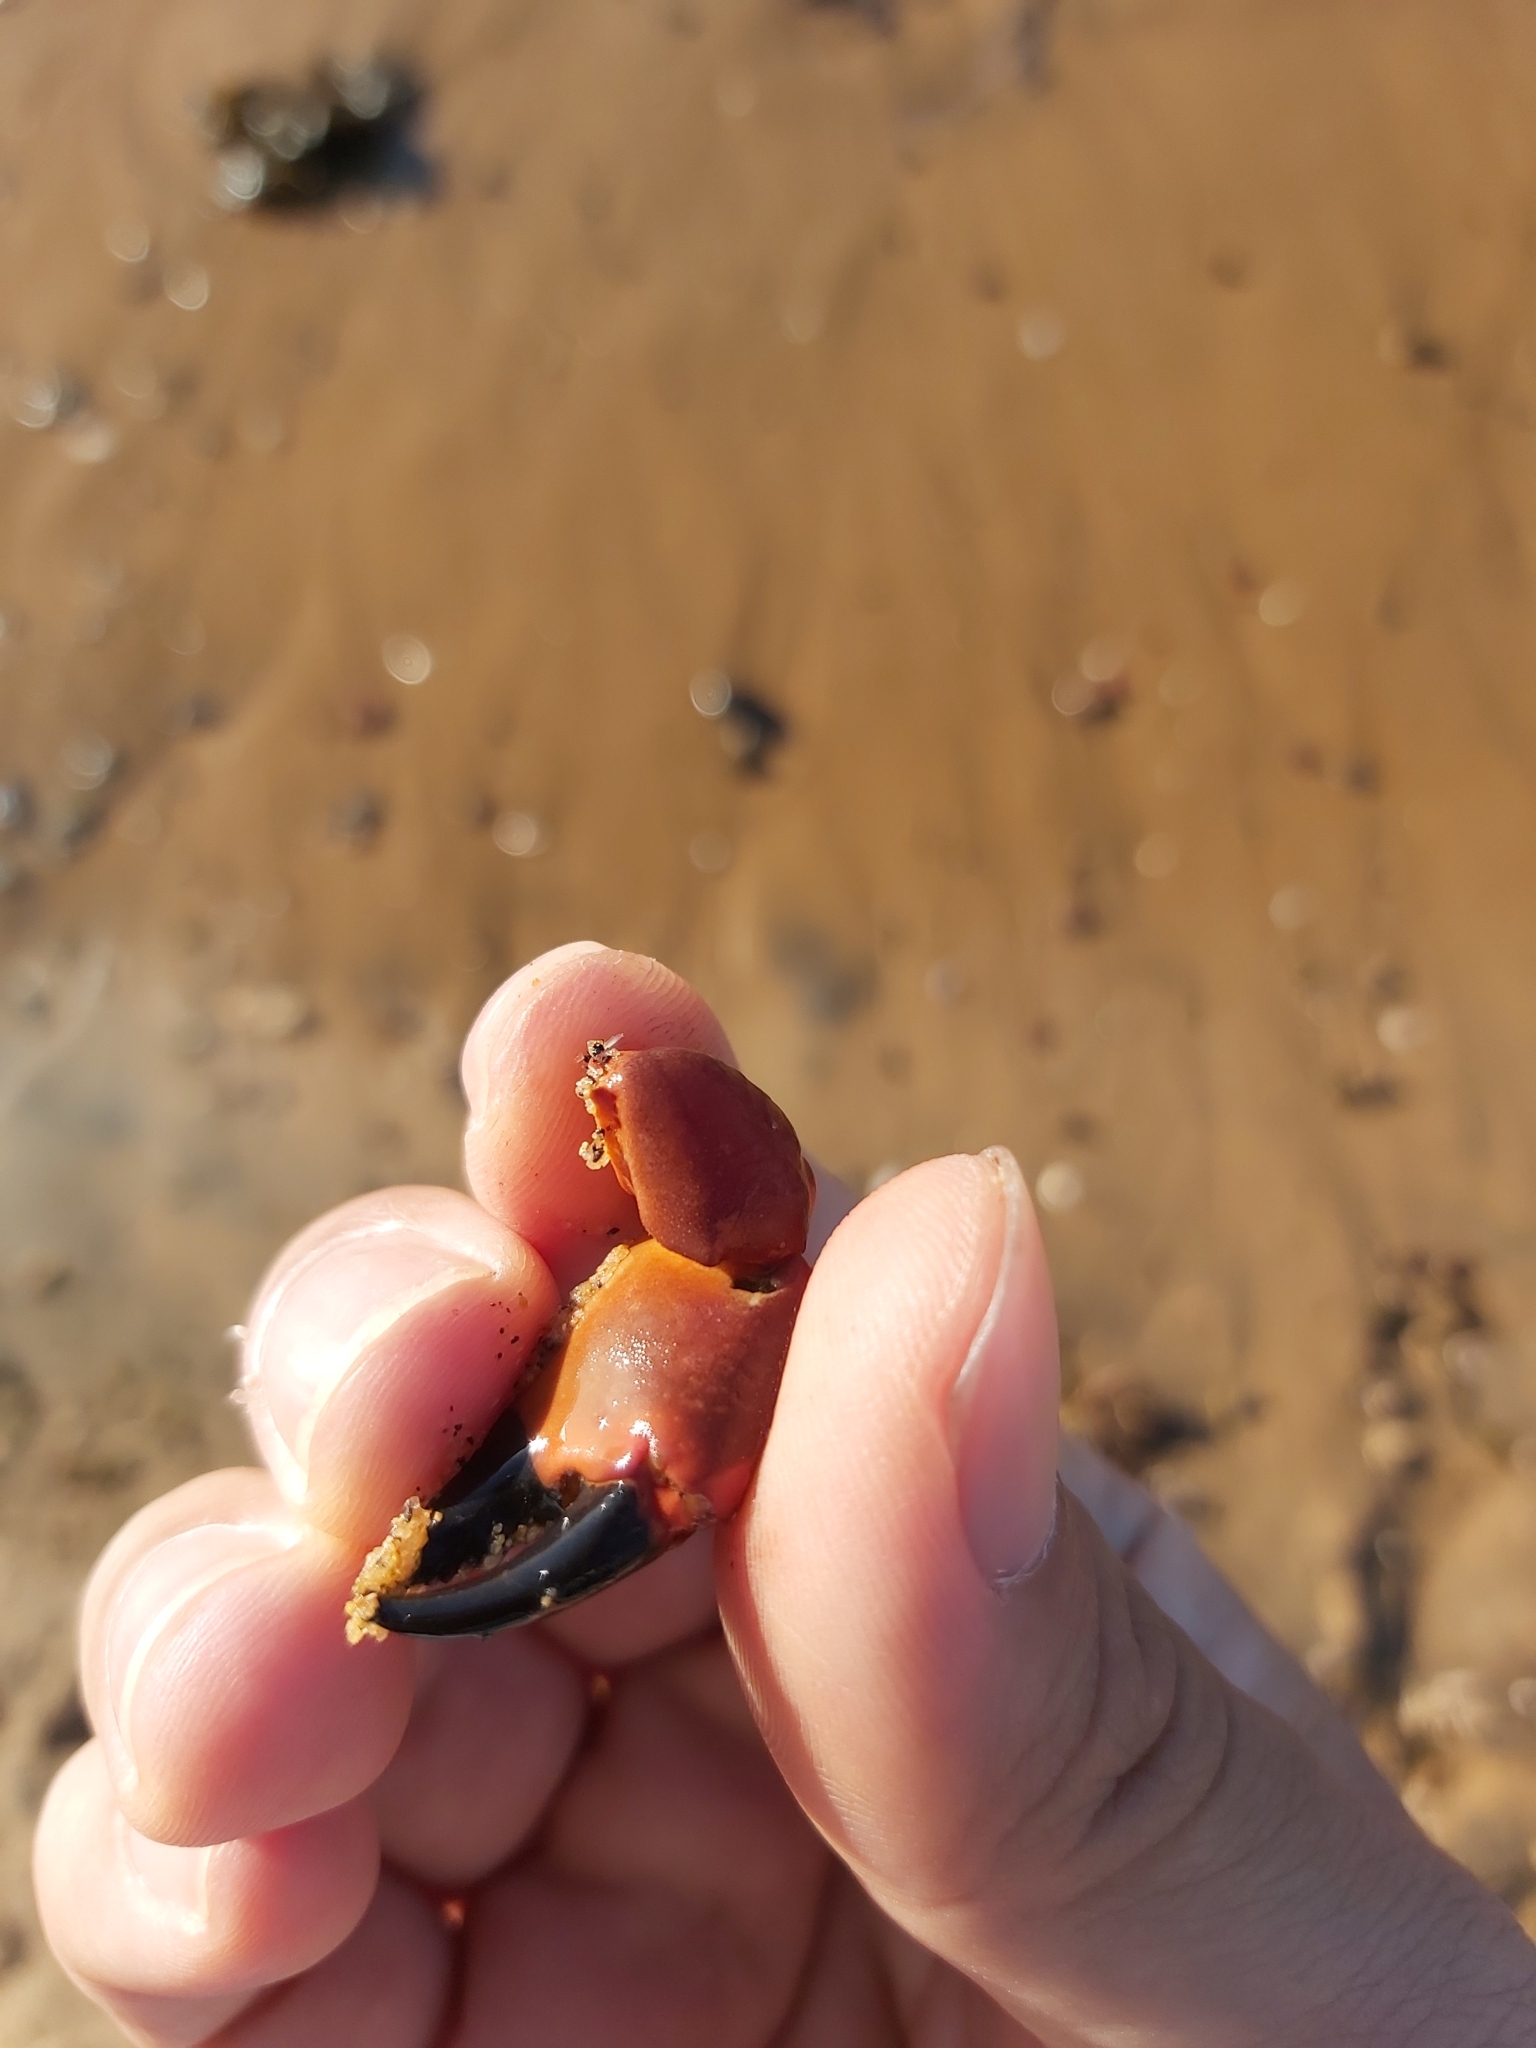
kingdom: Animalia
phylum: Arthropoda
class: Malacostraca
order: Decapoda
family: Oziidae
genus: Ozius
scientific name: Ozius truncatus
